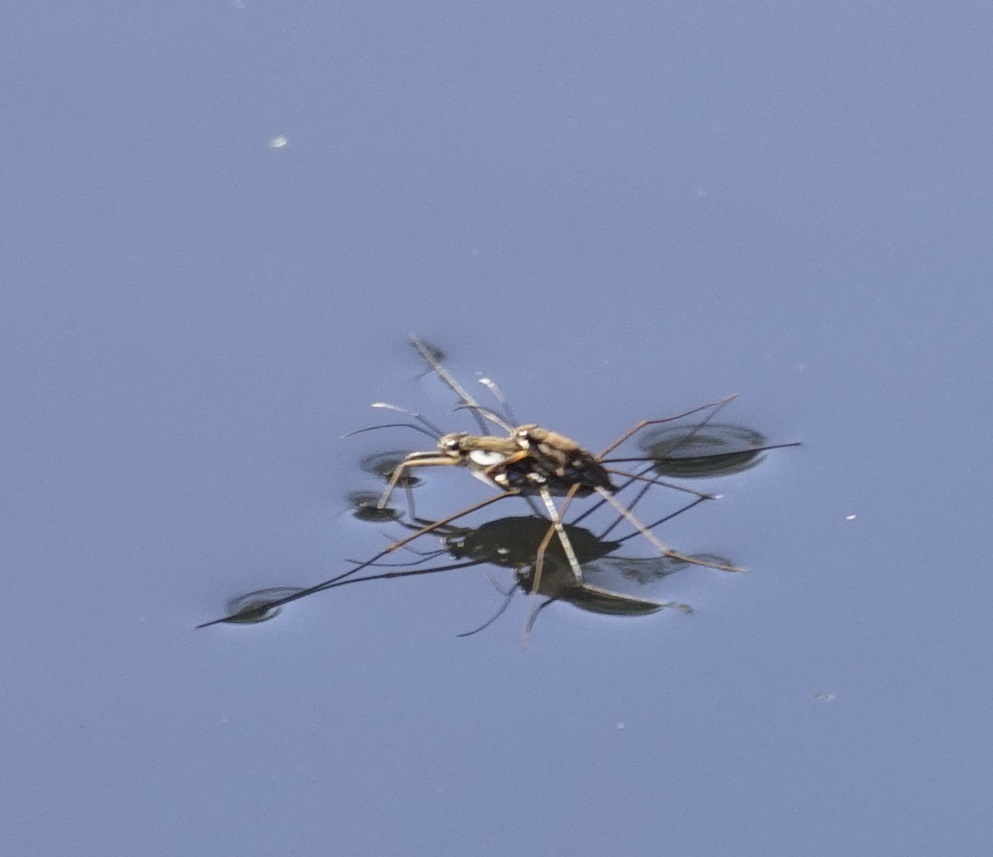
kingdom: Animalia
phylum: Arthropoda
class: Insecta
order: Hemiptera
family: Gerridae
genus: Tenagogerris
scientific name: Tenagogerris euphrosyne
